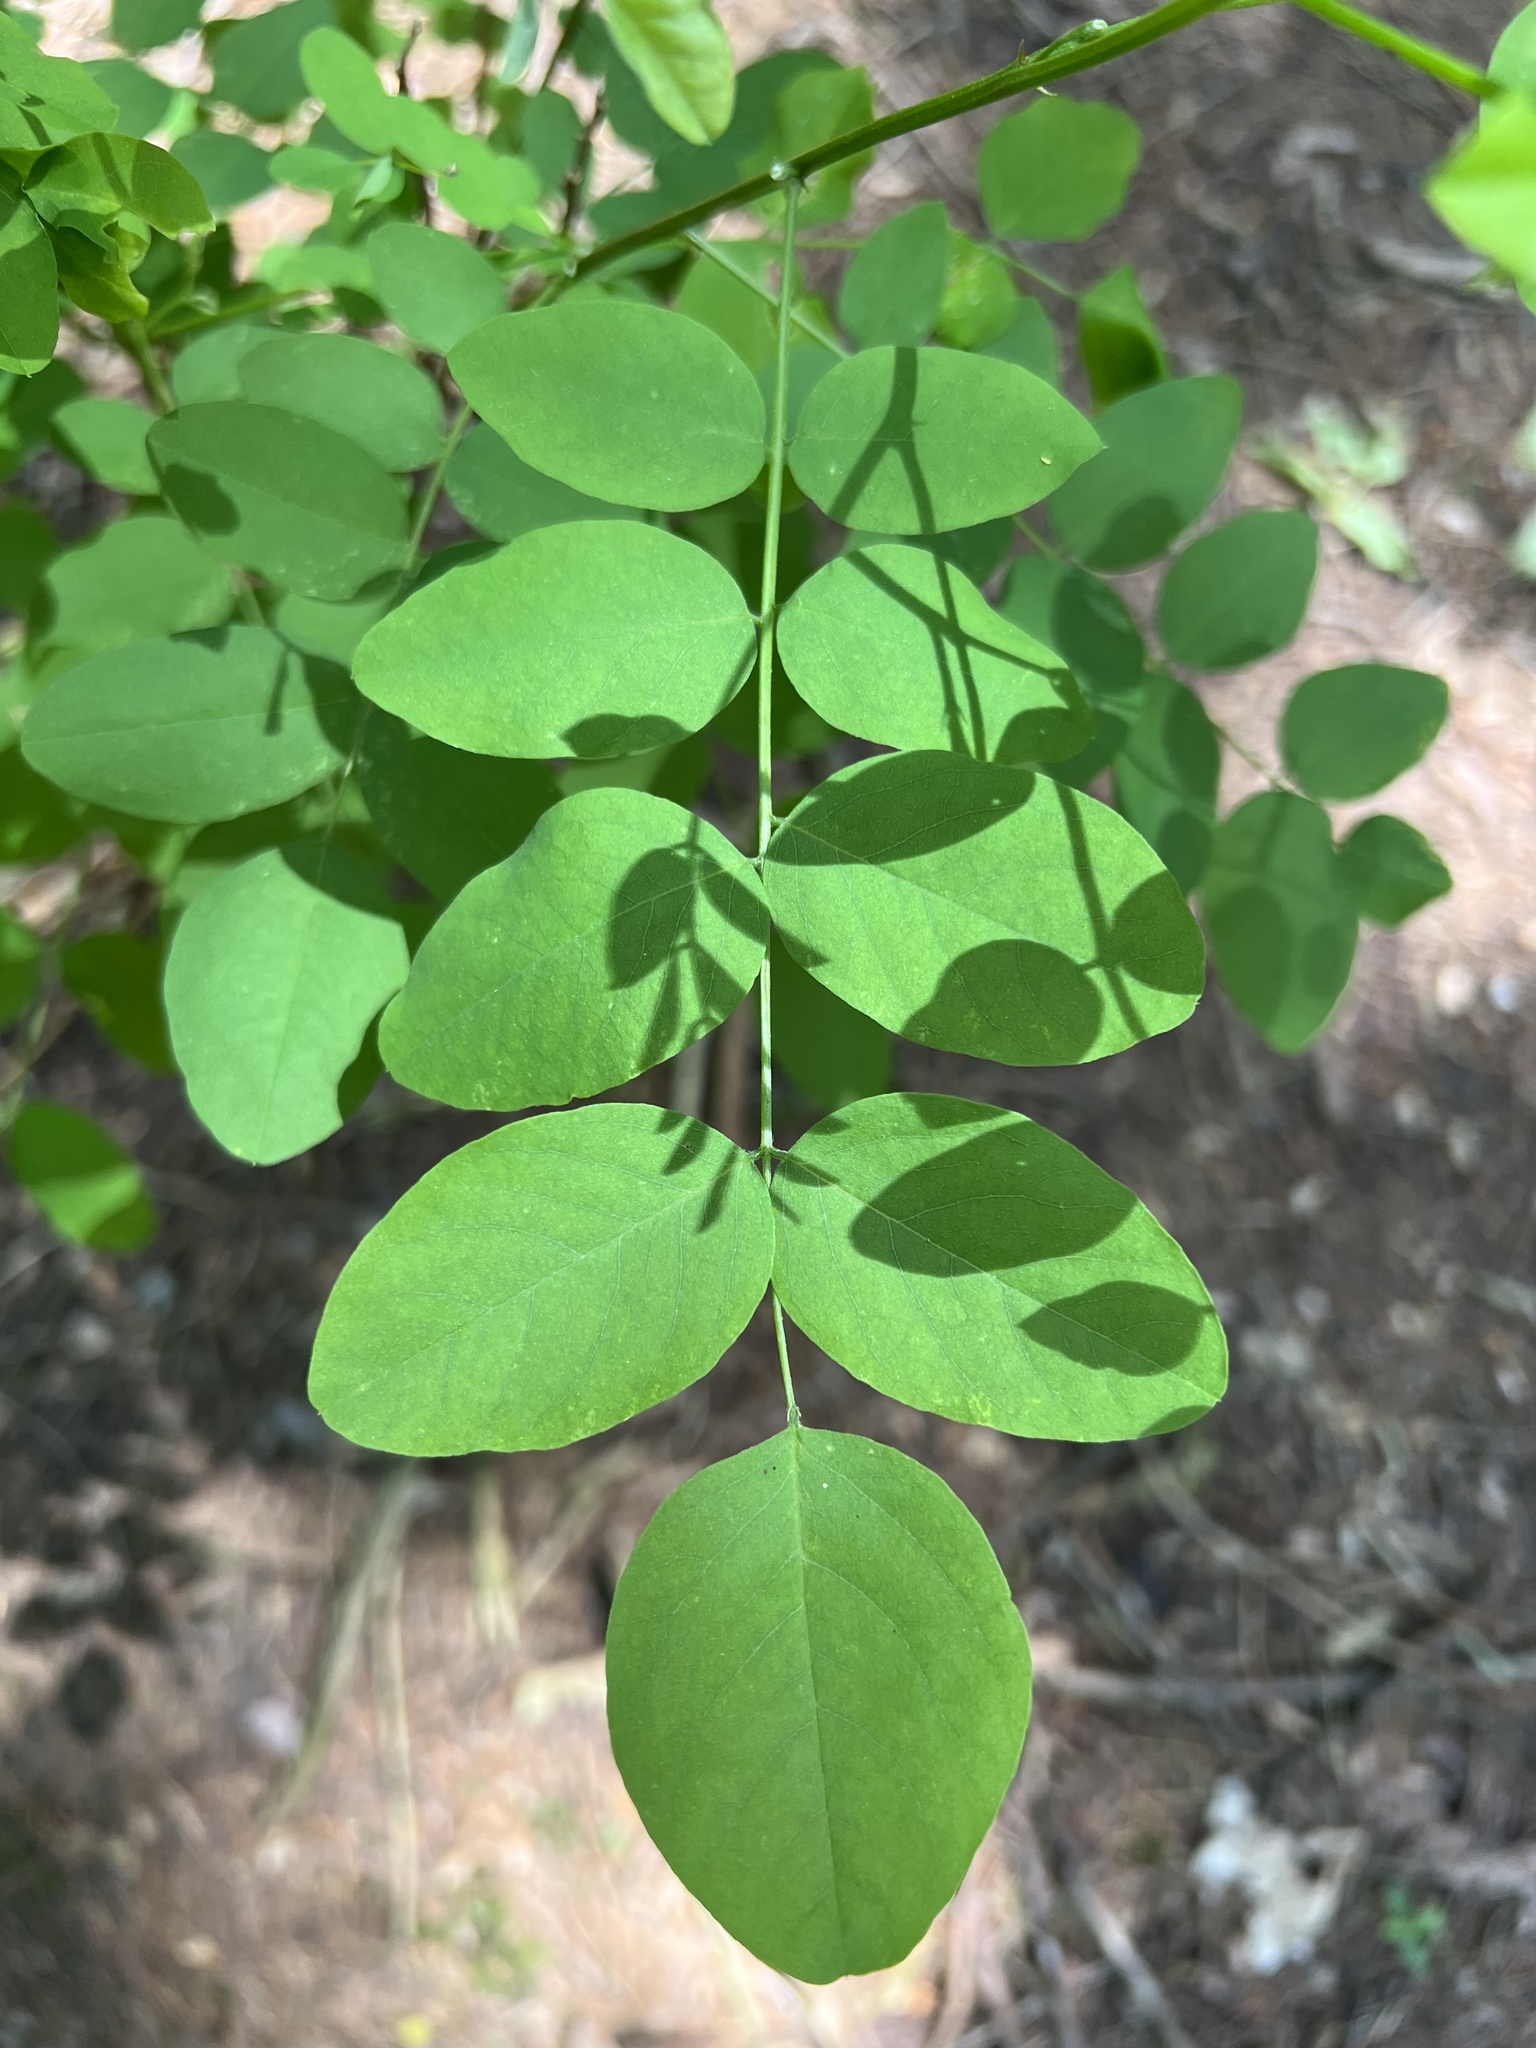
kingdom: Plantae
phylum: Tracheophyta
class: Magnoliopsida
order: Fabales
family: Fabaceae
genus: Robinia
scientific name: Robinia pseudoacacia
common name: Black locust
